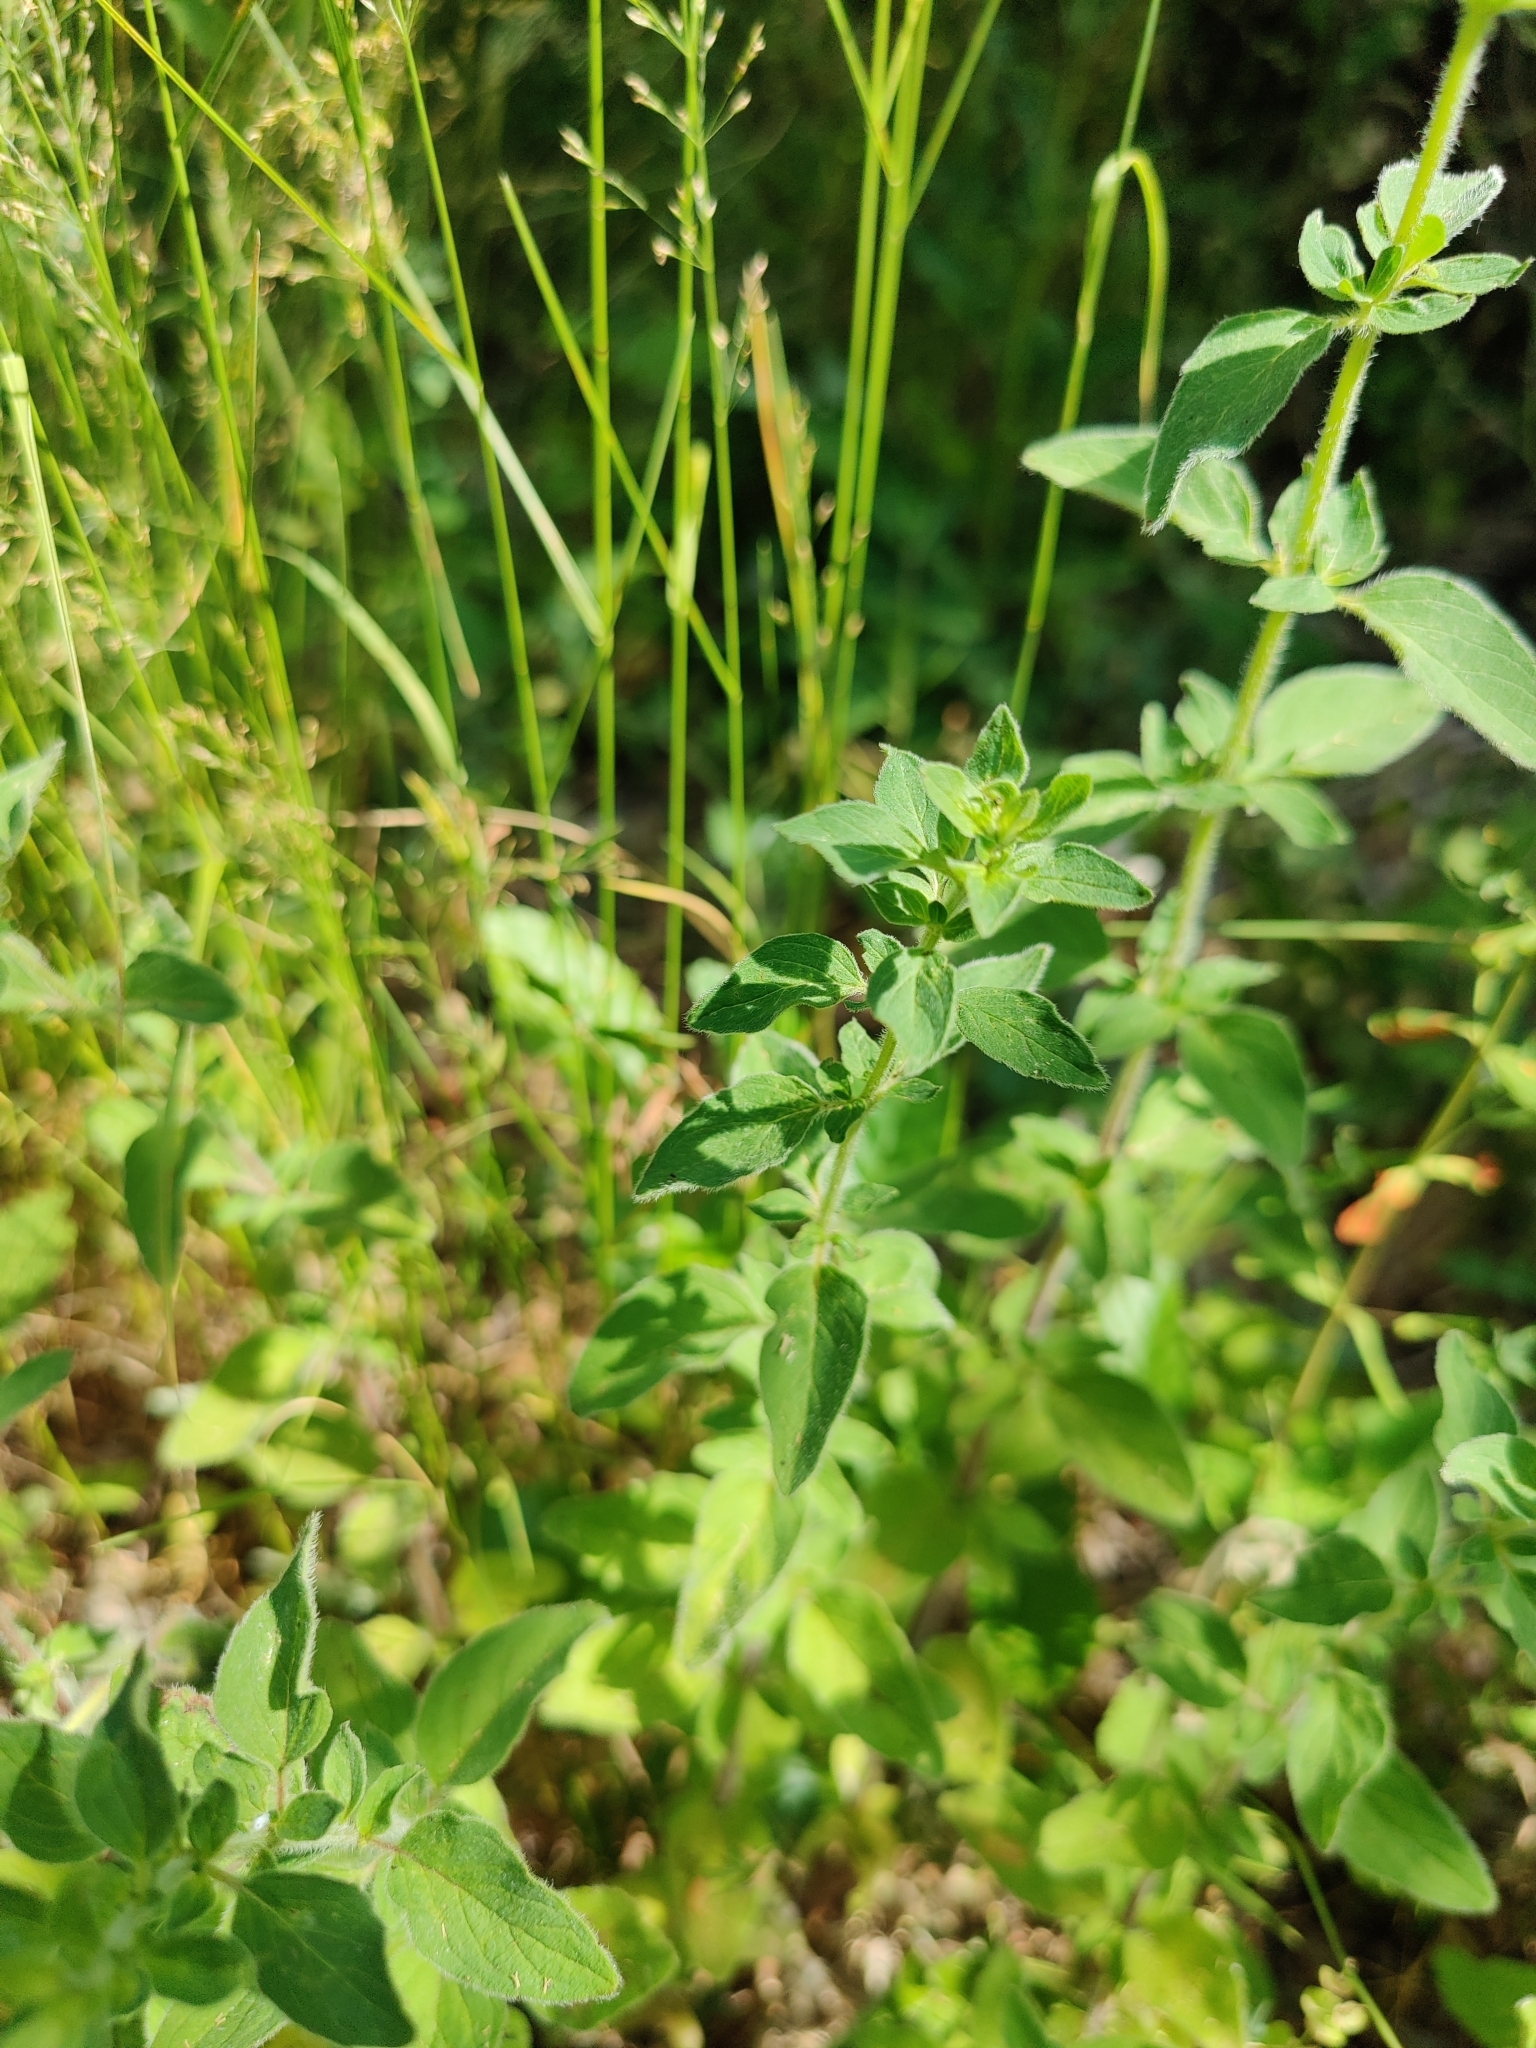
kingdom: Plantae
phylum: Tracheophyta
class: Magnoliopsida
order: Lamiales
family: Lamiaceae
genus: Origanum
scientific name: Origanum vulgare
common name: Wild marjoram
